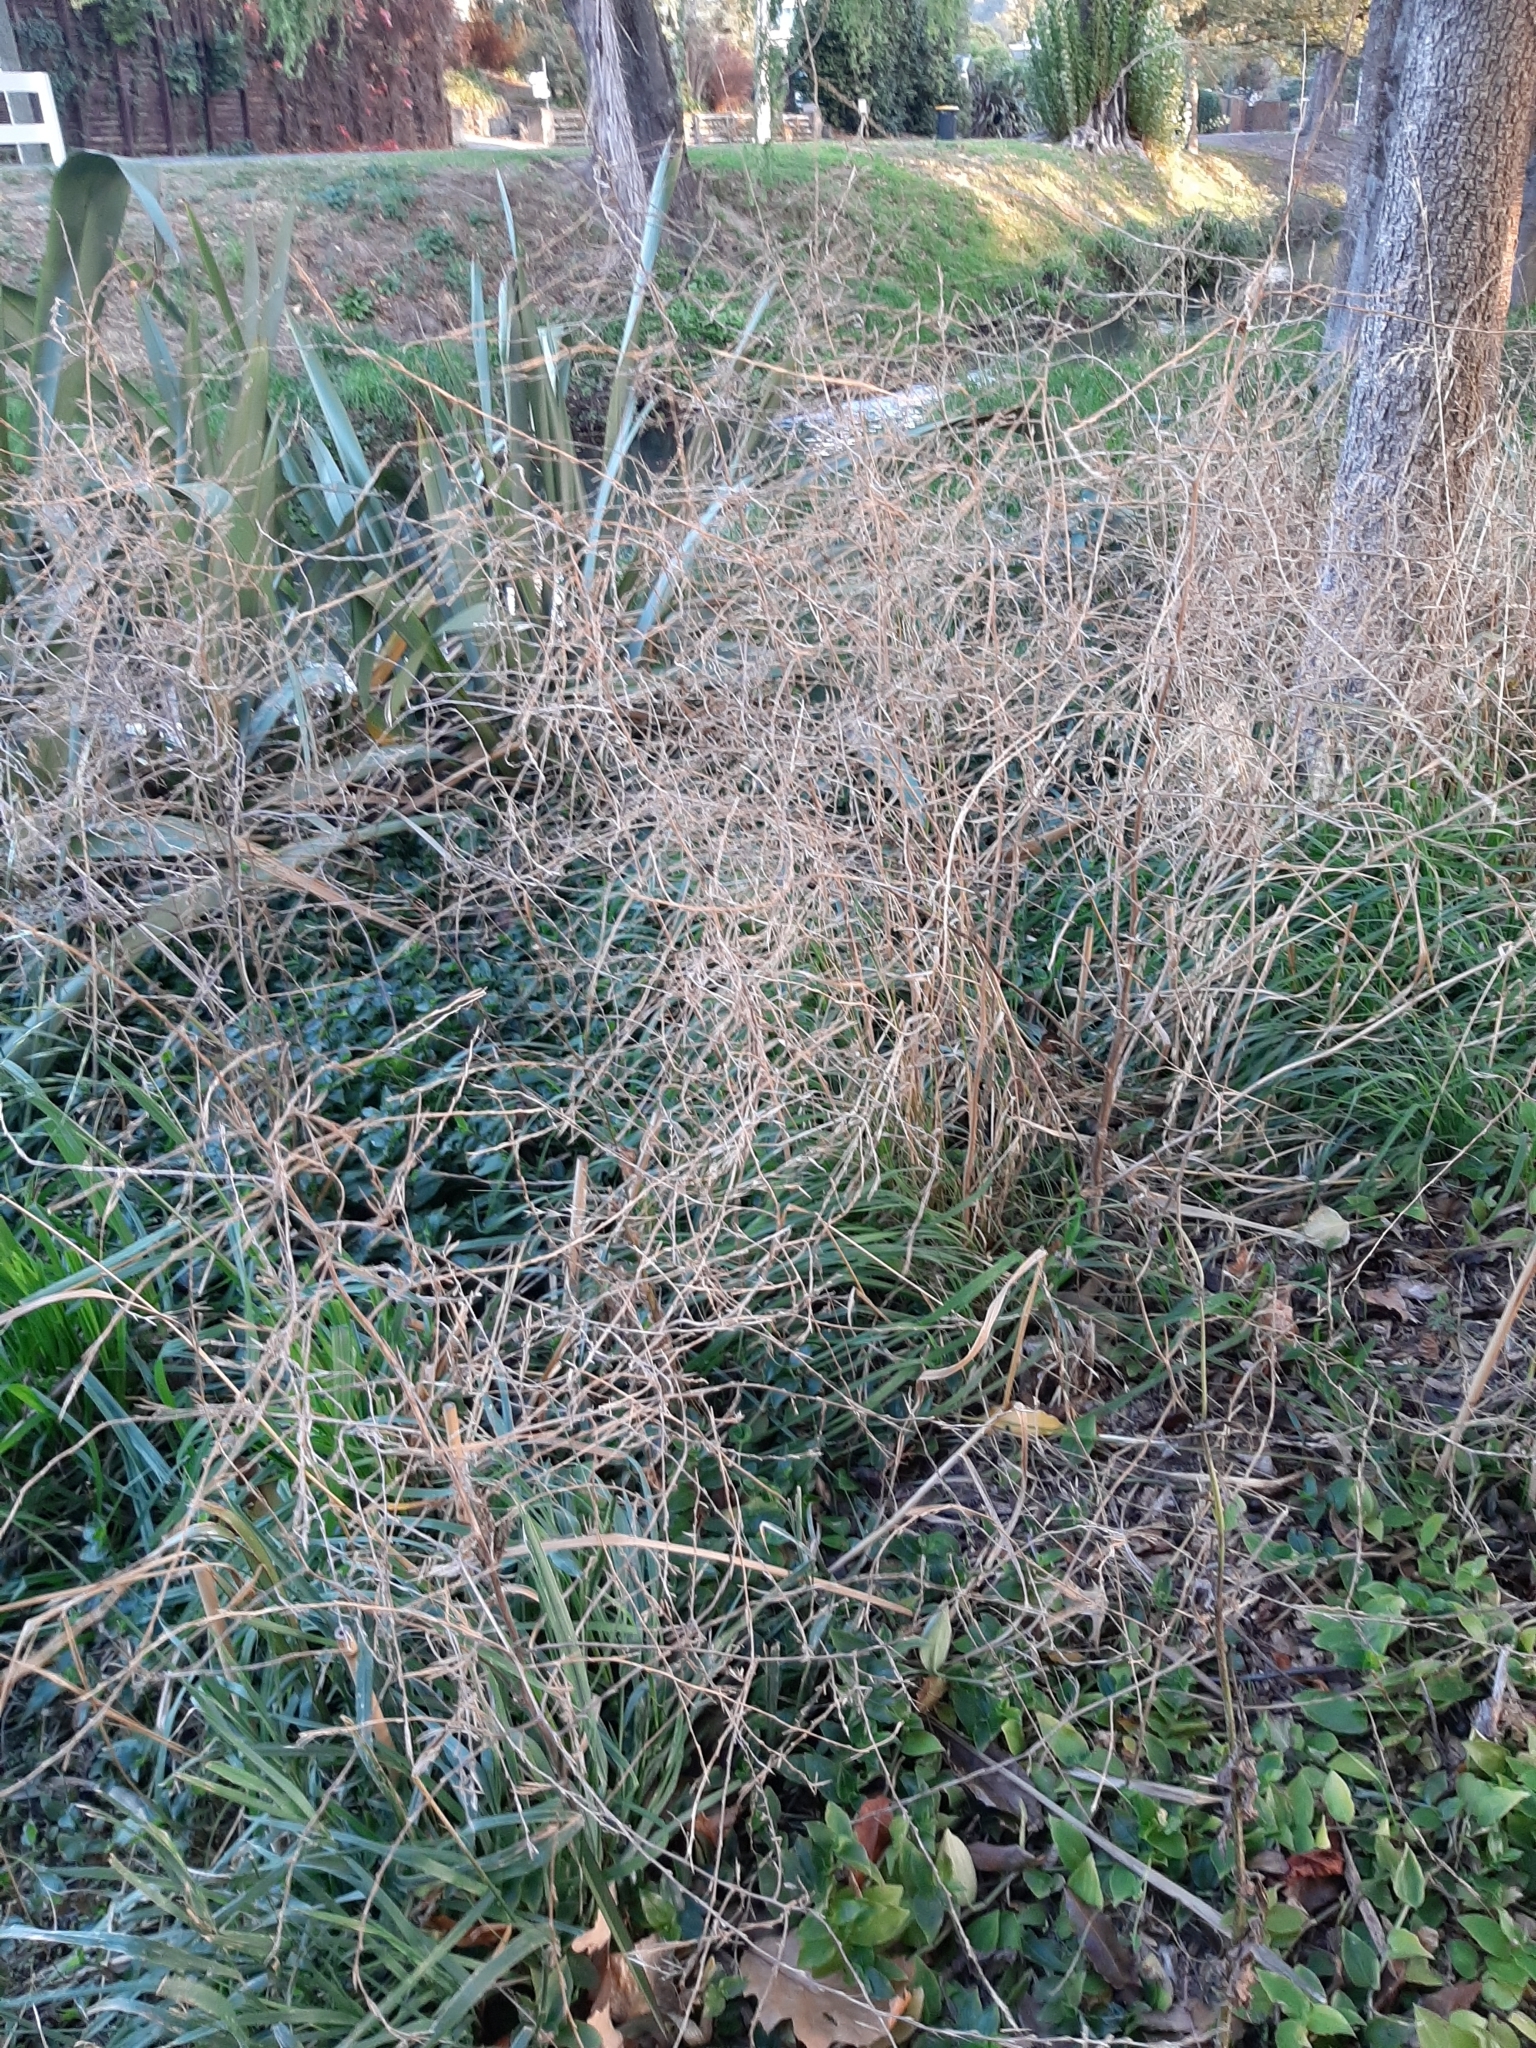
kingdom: Plantae
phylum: Tracheophyta
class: Magnoliopsida
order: Brassicales
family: Brassicaceae
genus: Sisymbrium
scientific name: Sisymbrium officinale
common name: Hedge mustard
